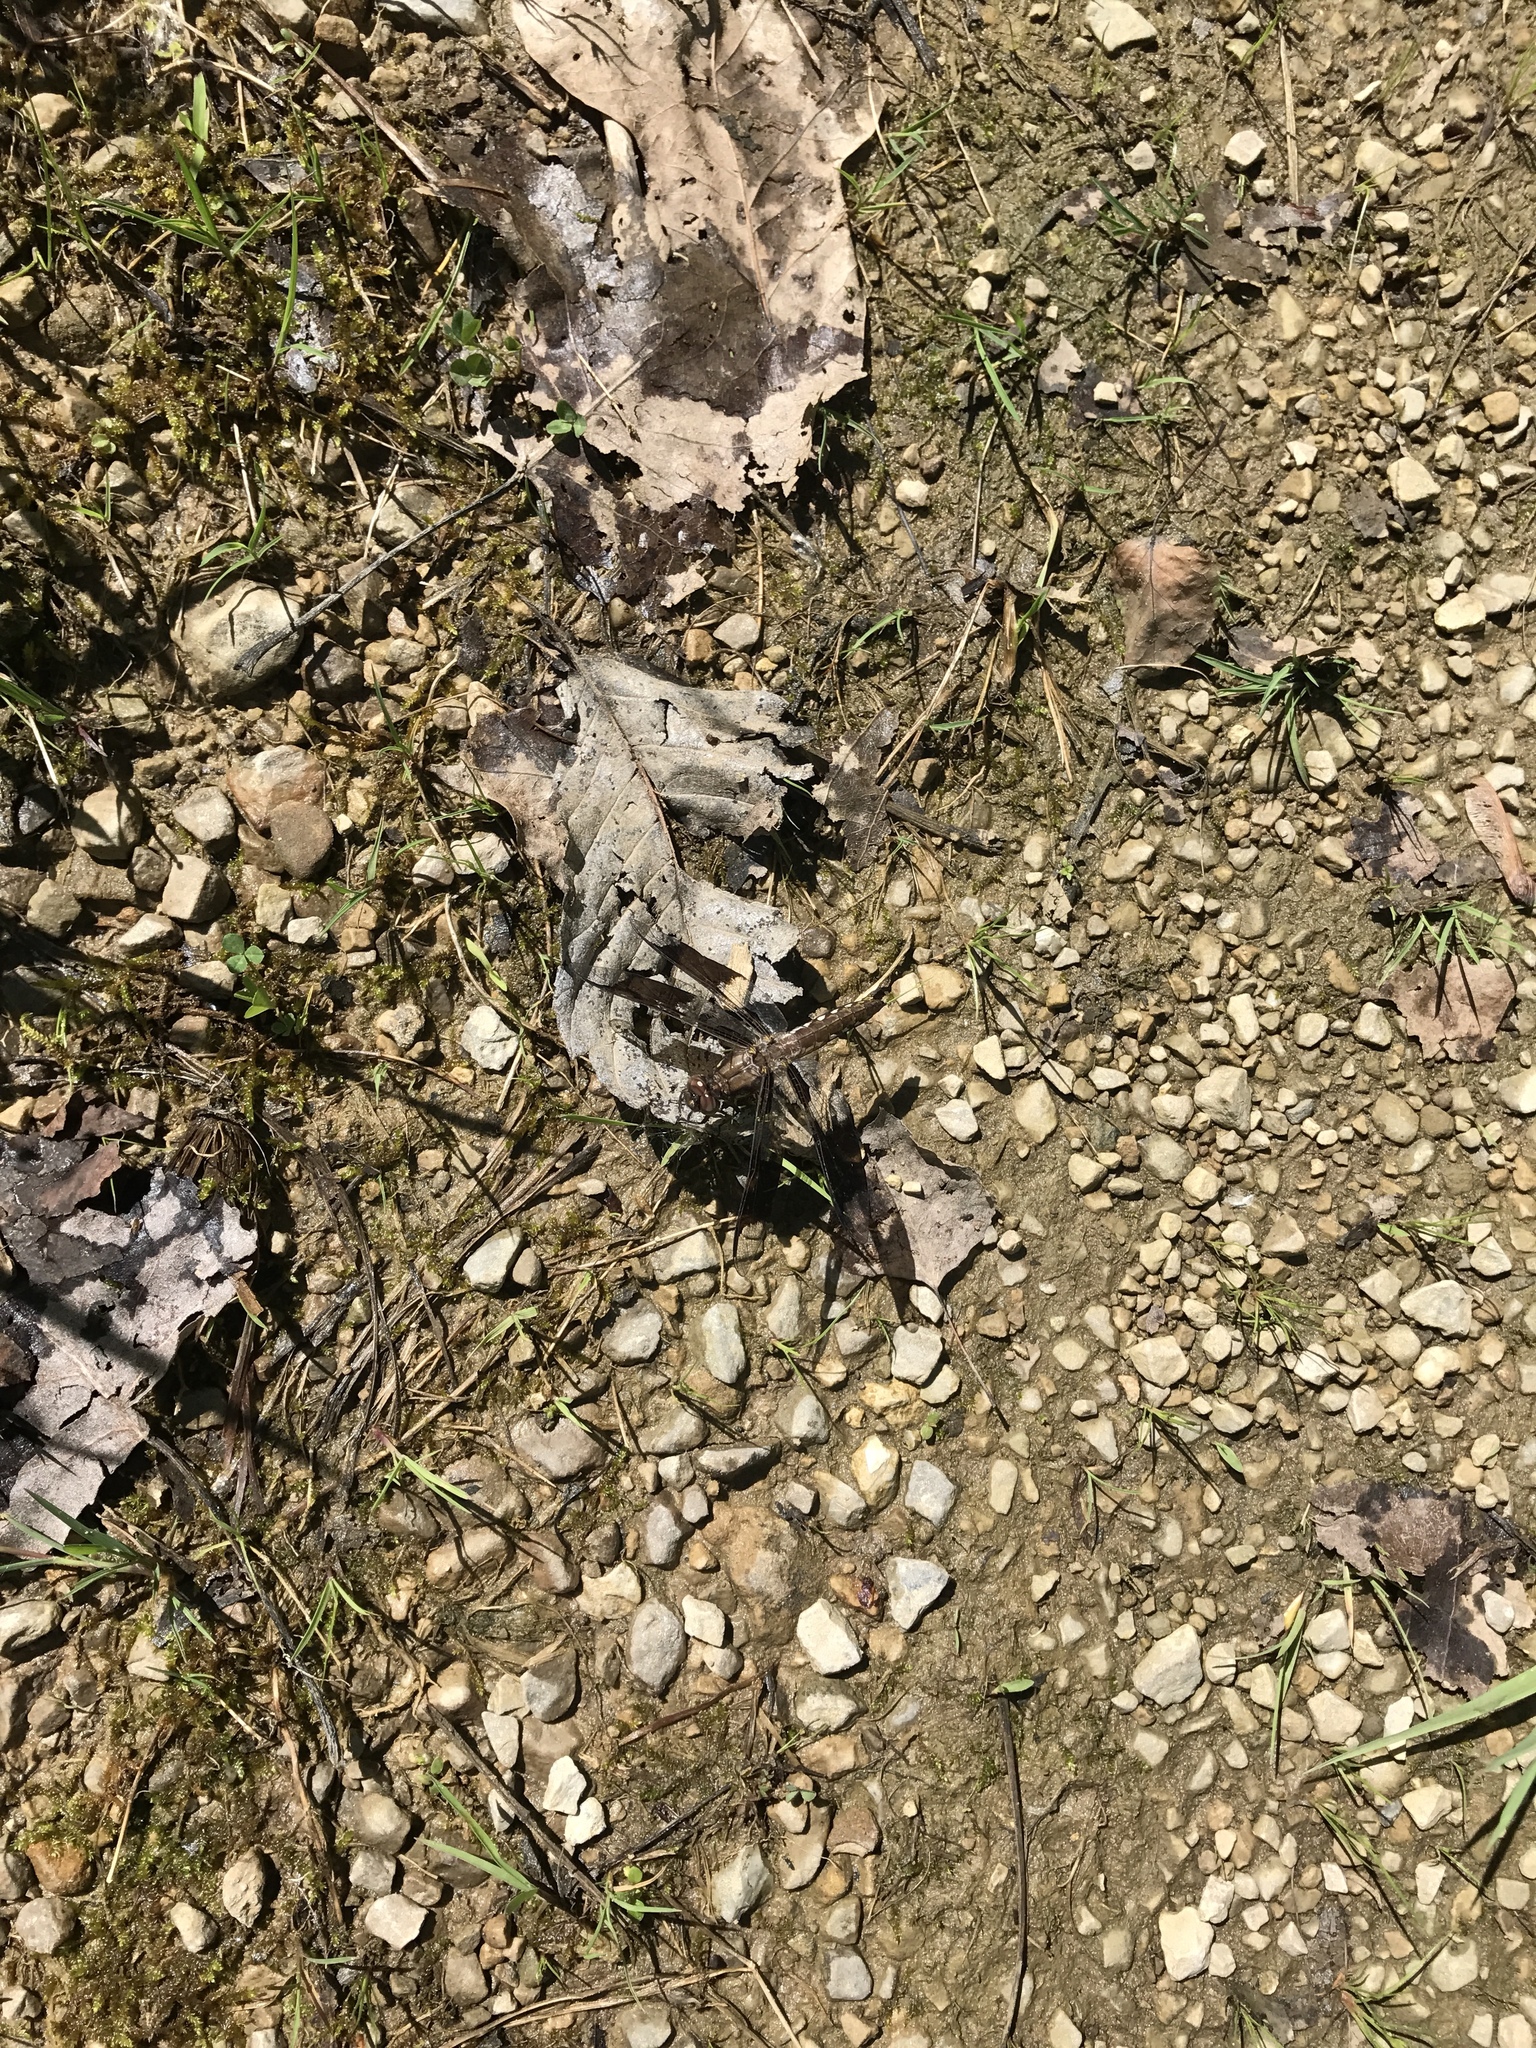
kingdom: Animalia
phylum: Arthropoda
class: Insecta
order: Odonata
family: Libellulidae
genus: Plathemis
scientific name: Plathemis lydia
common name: Common whitetail
